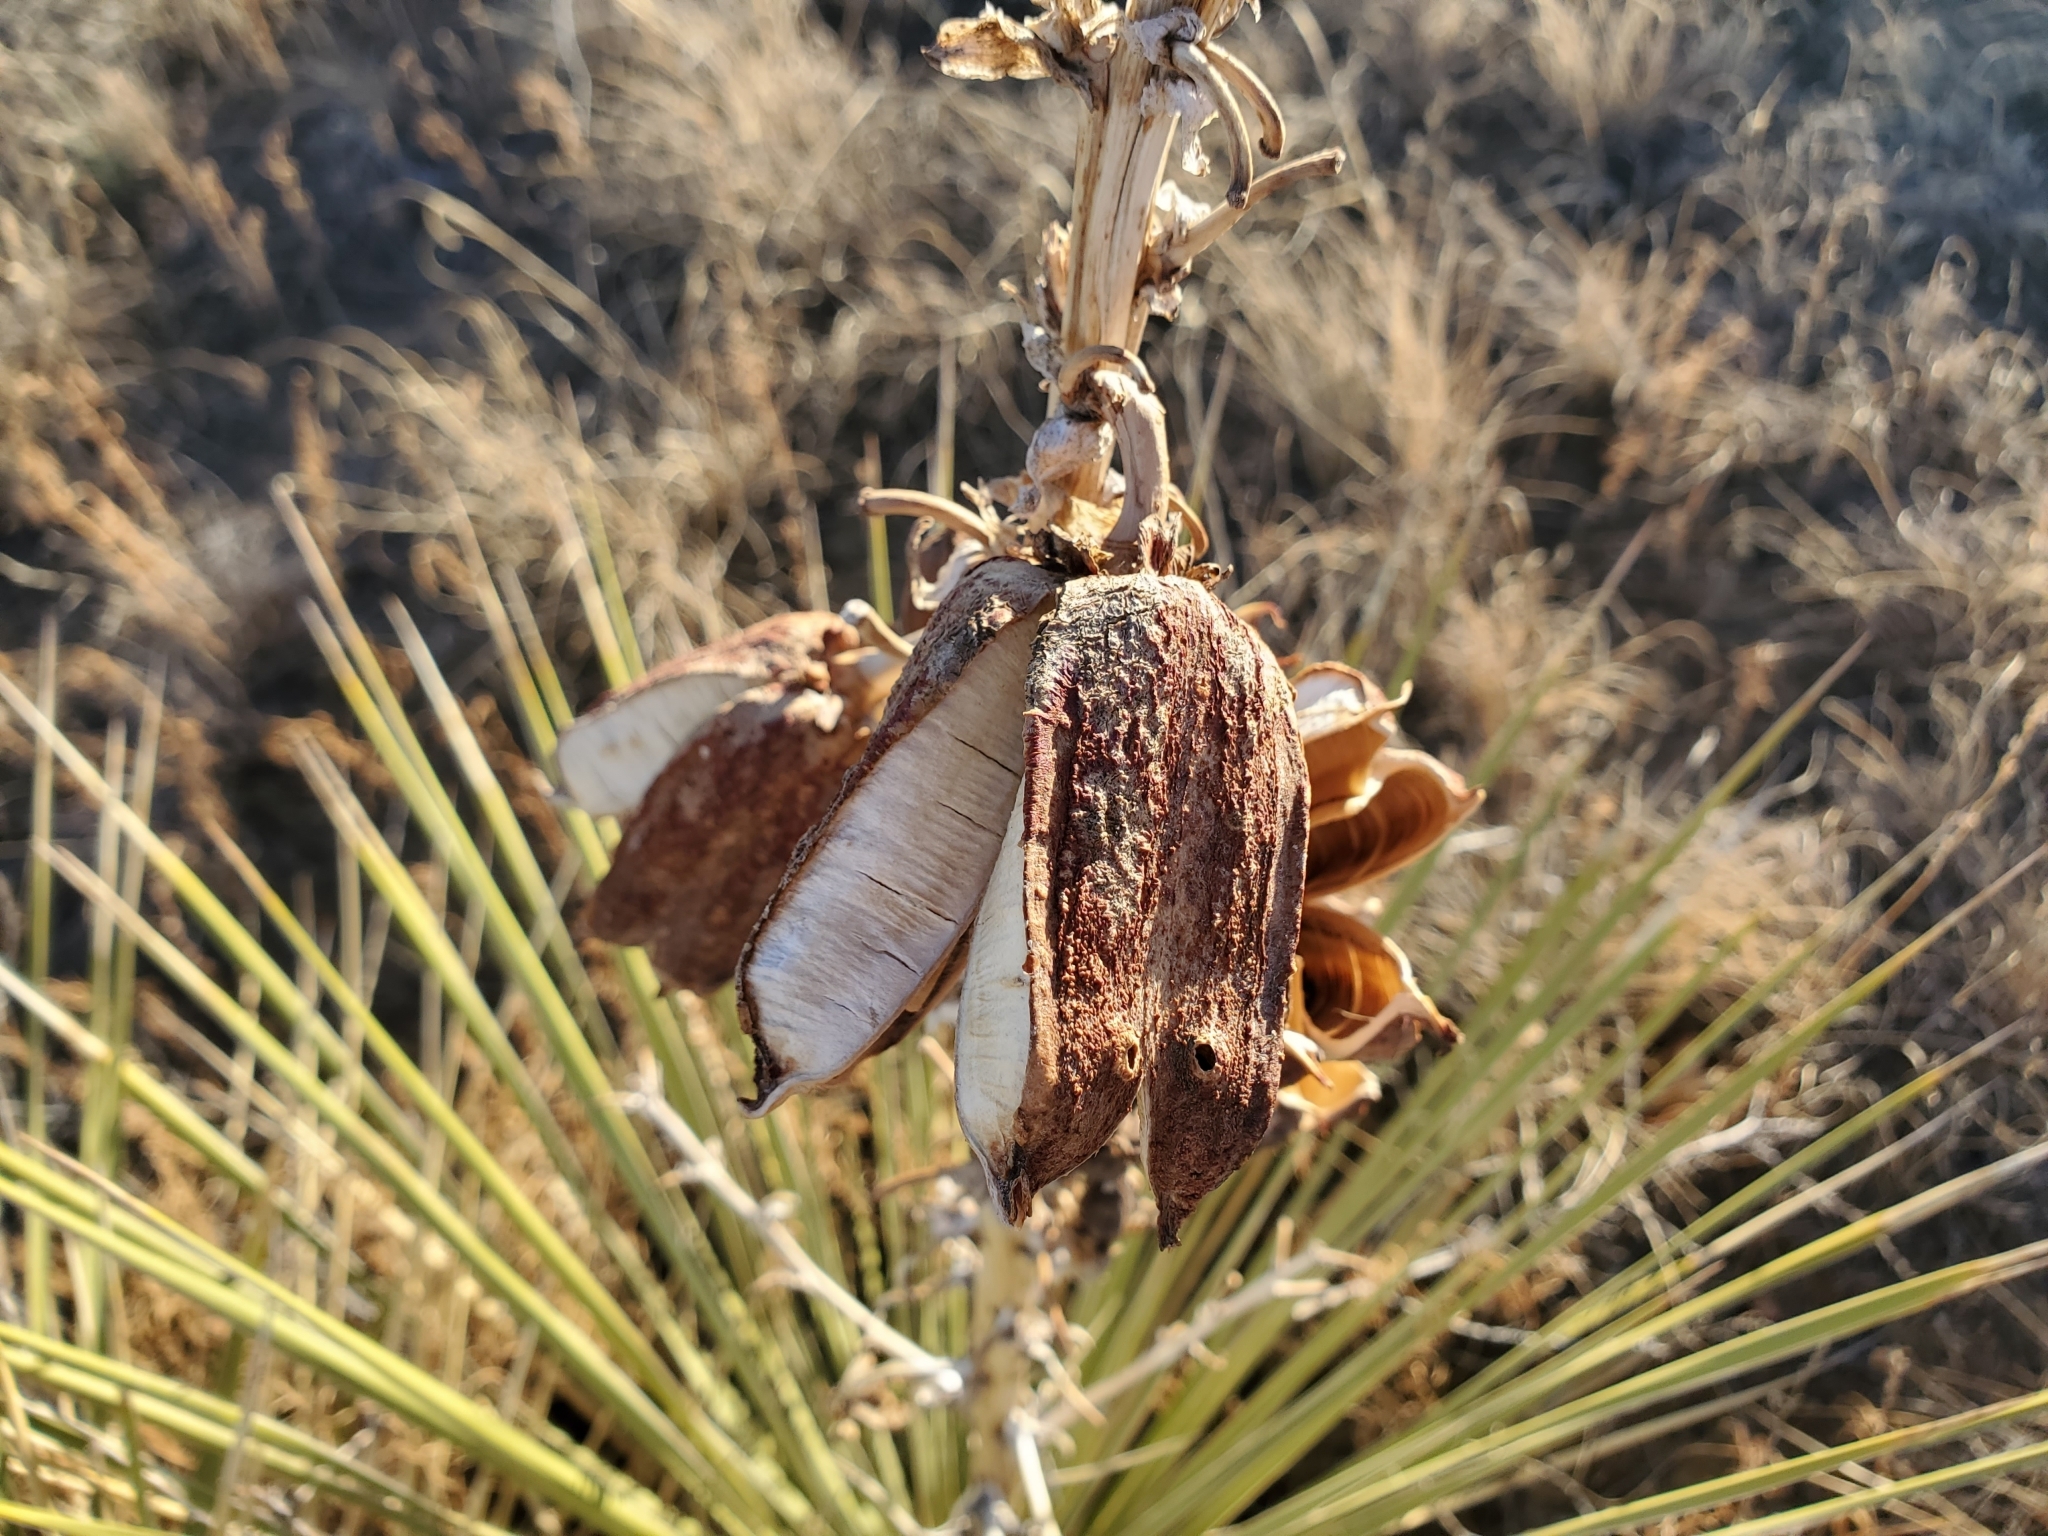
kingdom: Plantae
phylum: Tracheophyta
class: Liliopsida
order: Asparagales
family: Asparagaceae
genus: Yucca
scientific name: Yucca glauca
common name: Great plains yucca
